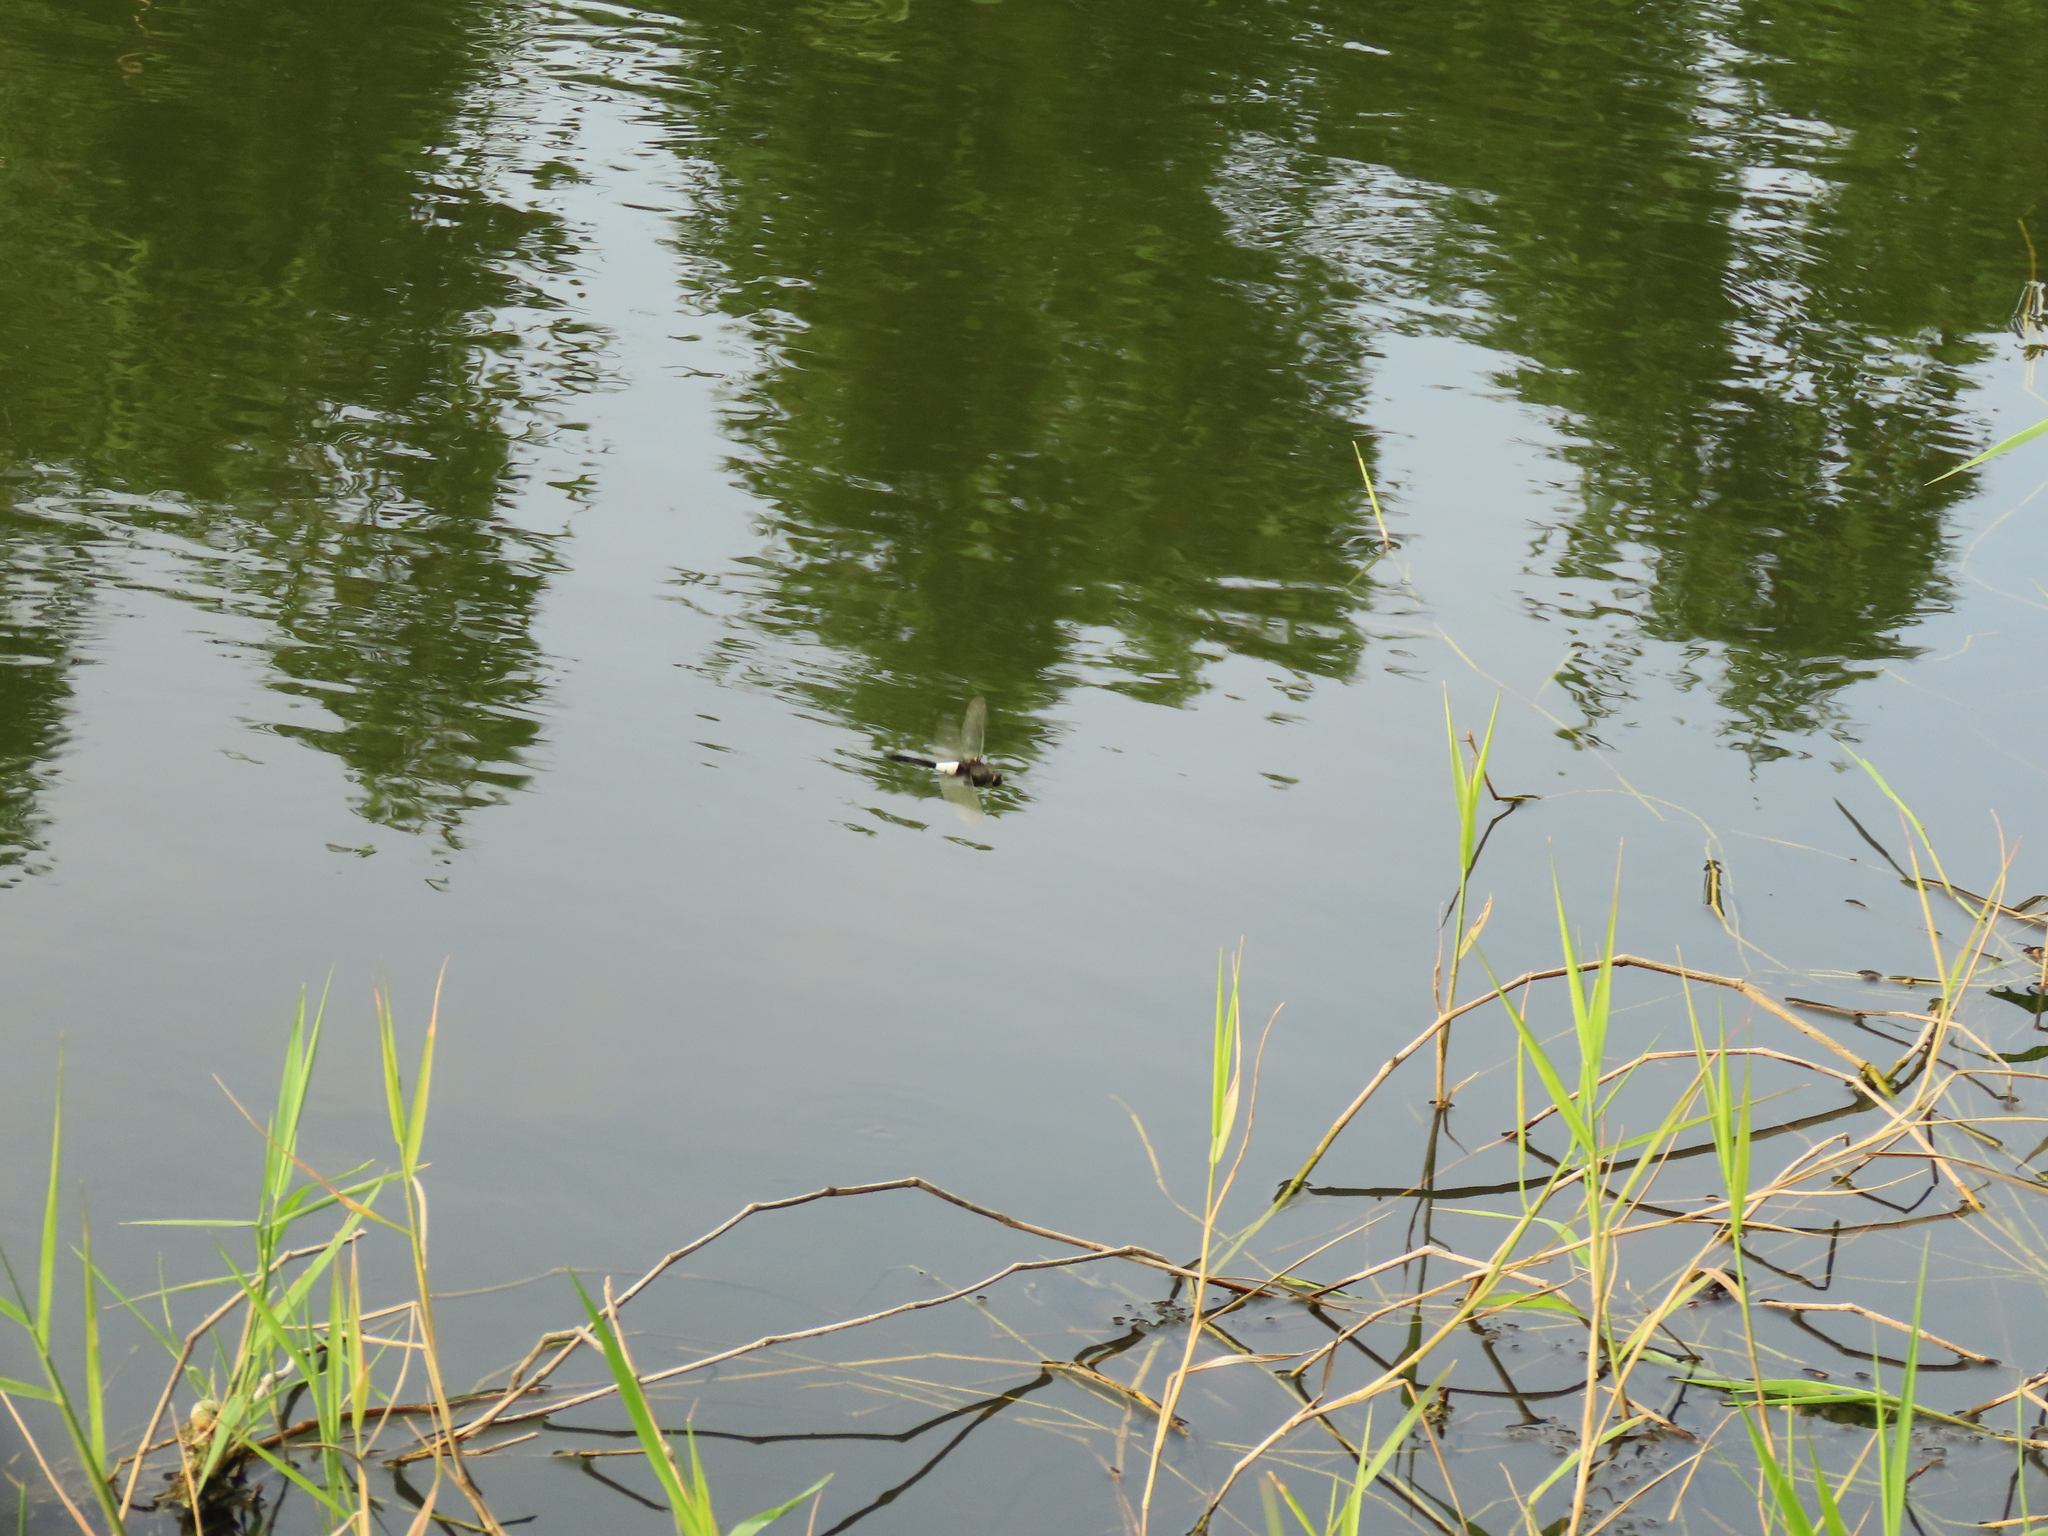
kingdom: Animalia
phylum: Arthropoda
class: Insecta
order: Odonata
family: Libellulidae
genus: Pseudothemis
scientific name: Pseudothemis zonata
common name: Pied skimmer
